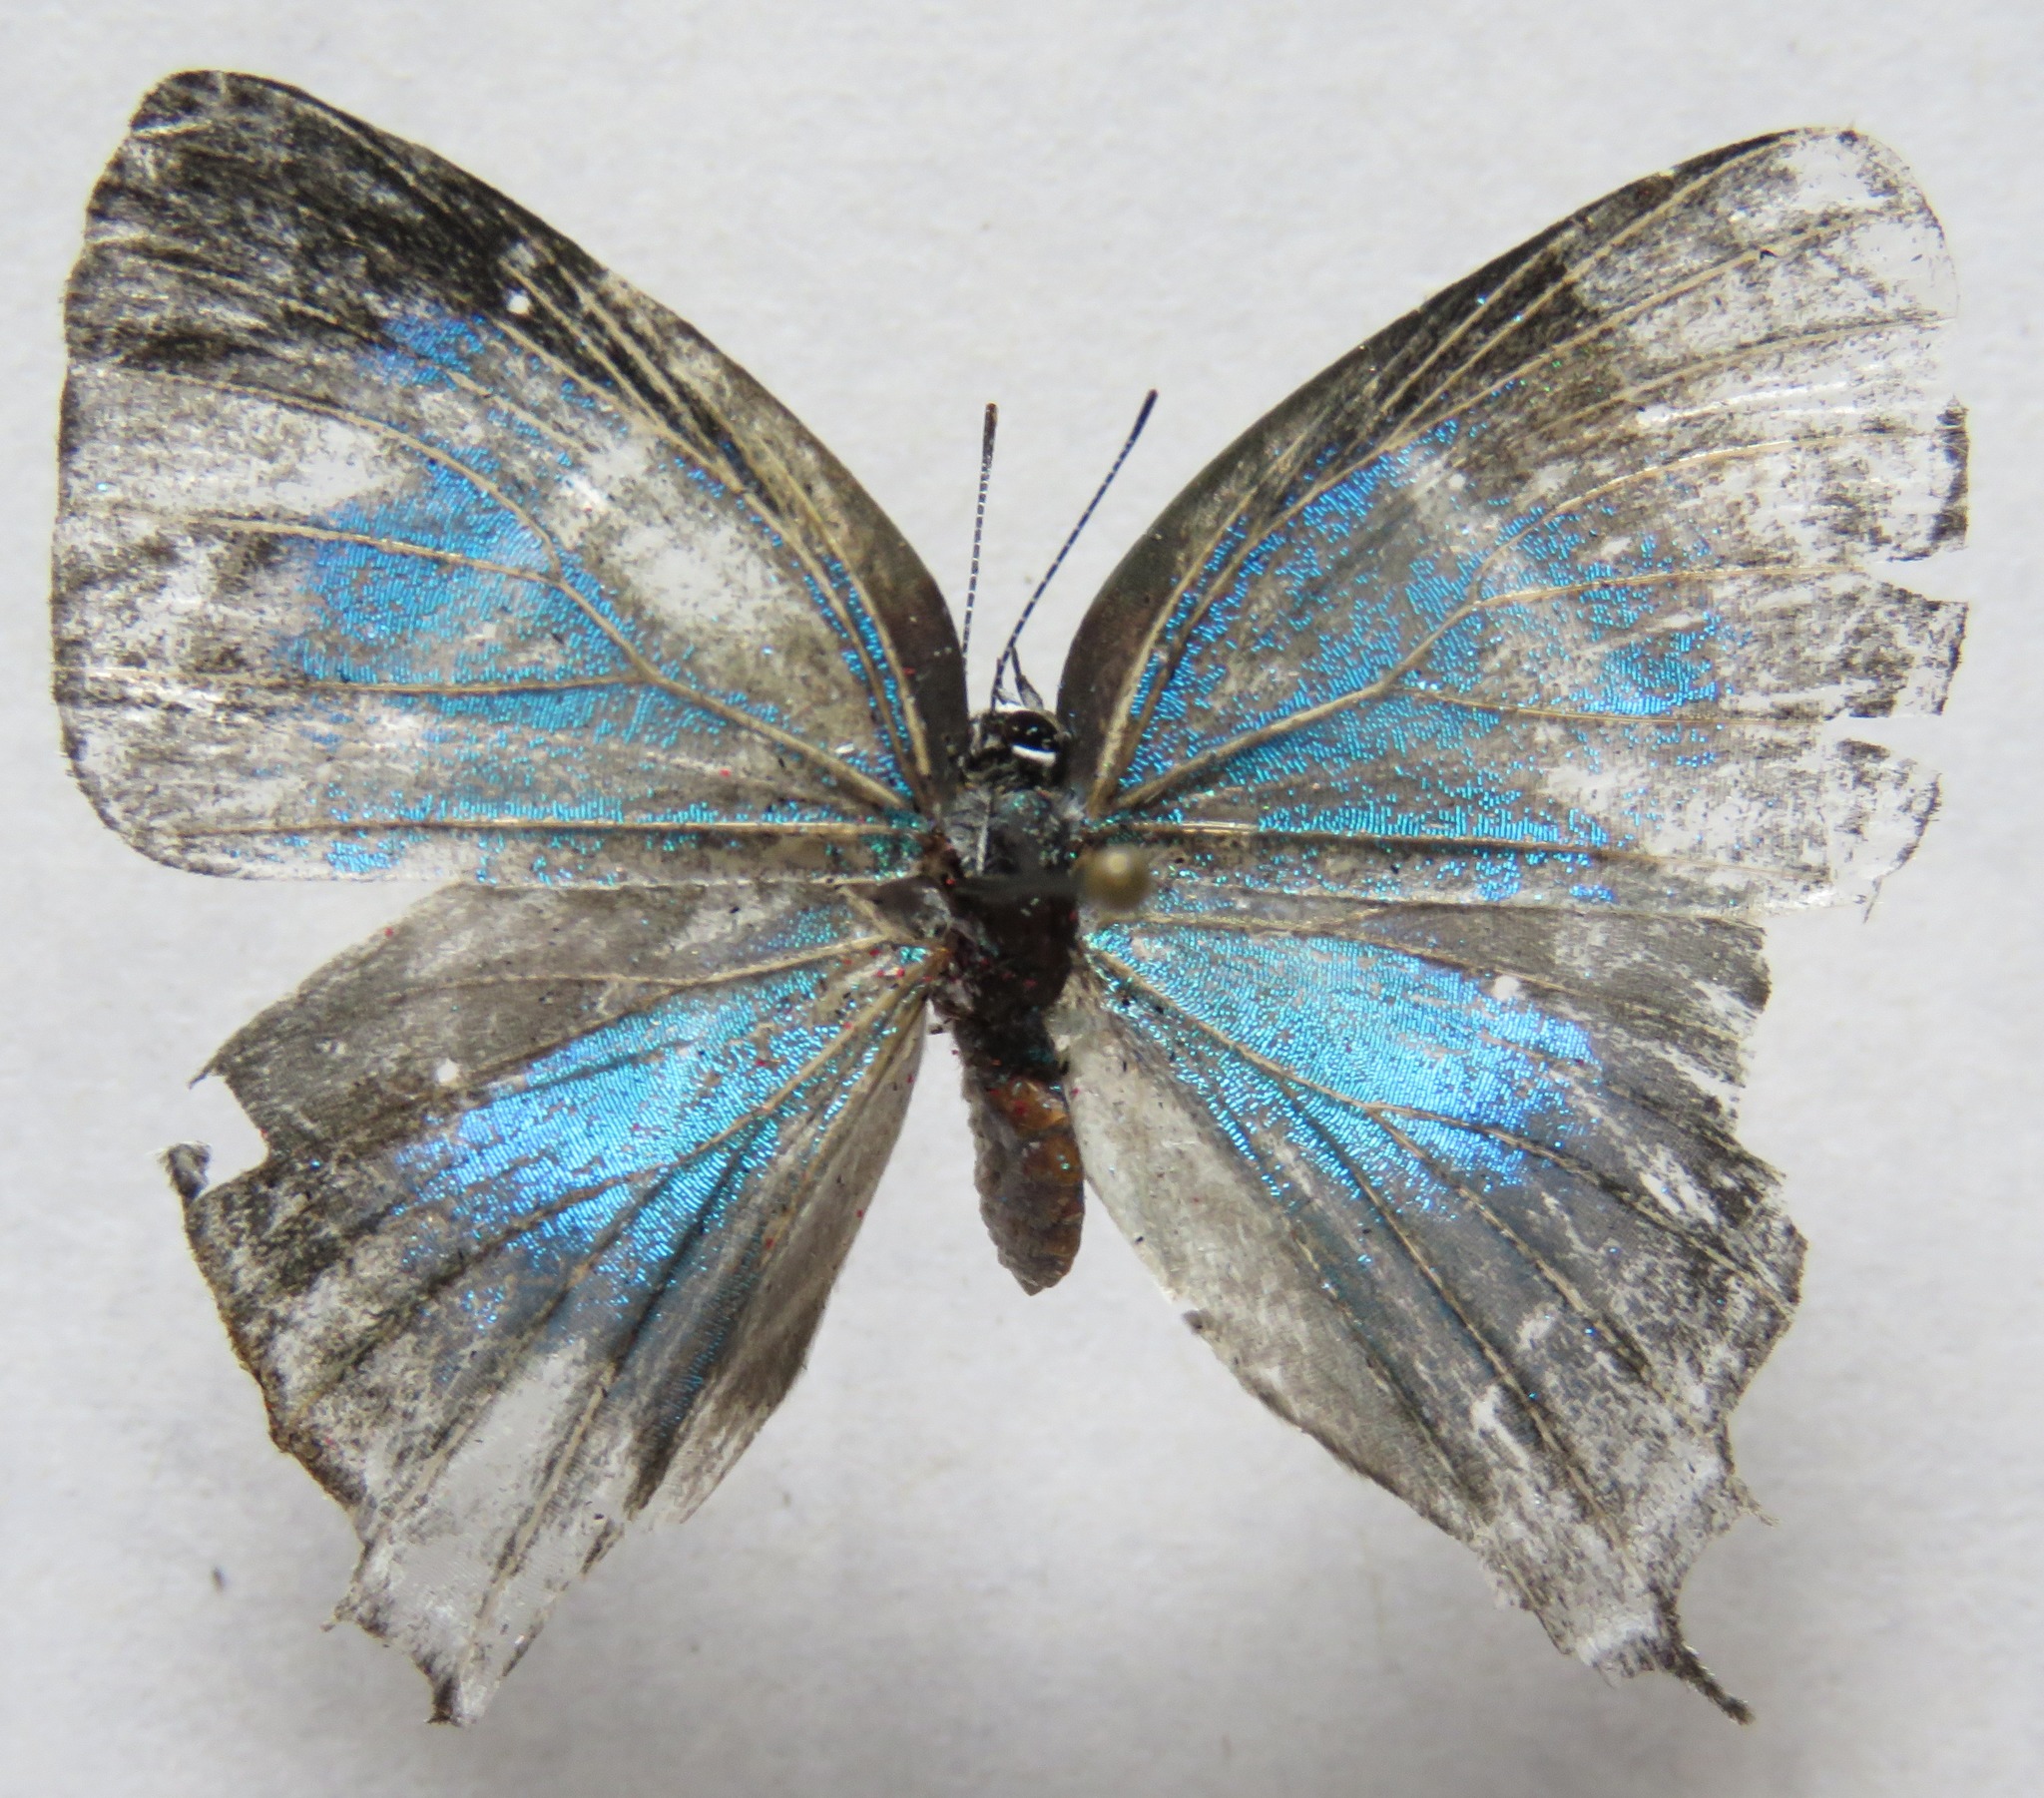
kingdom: Animalia
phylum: Arthropoda
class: Insecta
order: Lepidoptera
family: Lycaenidae
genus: Laothus
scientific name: Laothus barajo
